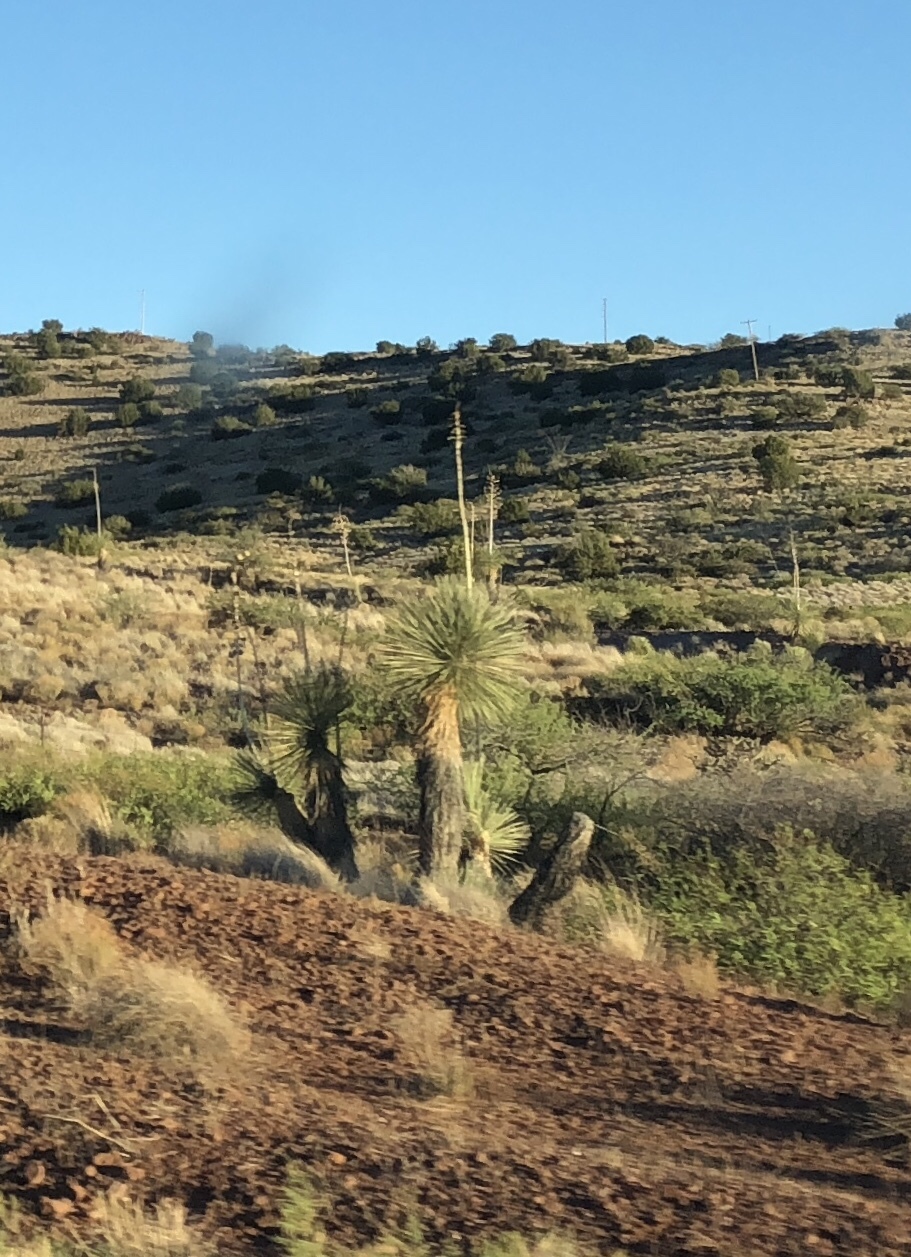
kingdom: Plantae
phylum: Tracheophyta
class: Liliopsida
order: Asparagales
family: Asparagaceae
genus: Yucca
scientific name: Yucca elata
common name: Palmella
